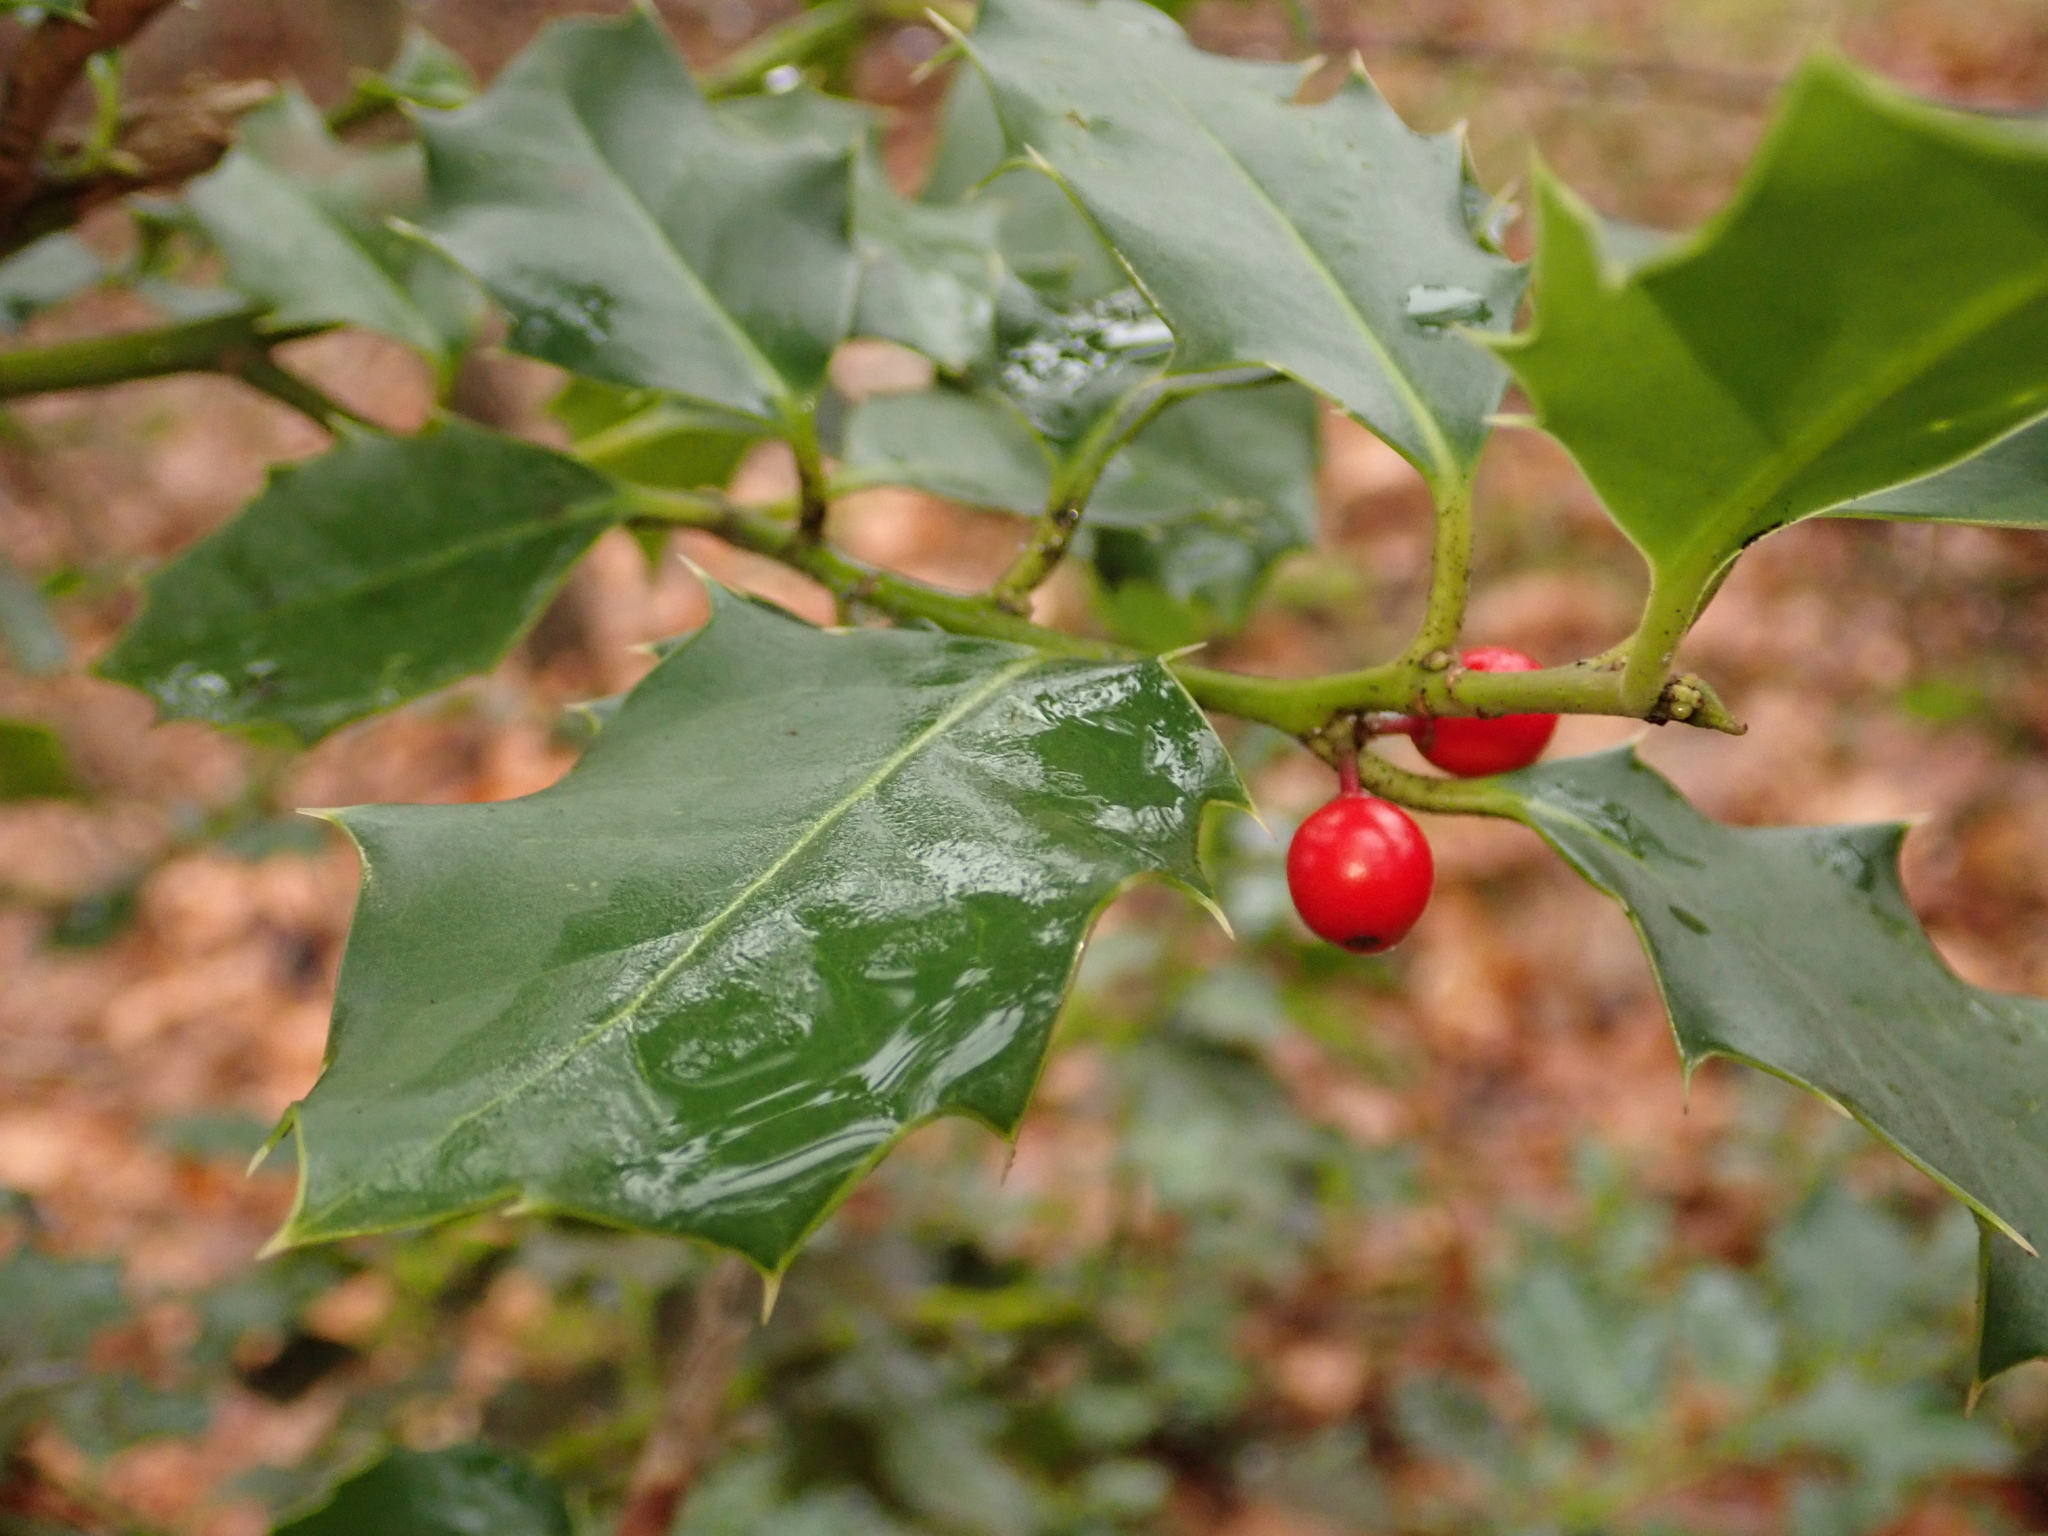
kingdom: Plantae
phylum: Tracheophyta
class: Magnoliopsida
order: Aquifoliales
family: Aquifoliaceae
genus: Ilex
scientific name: Ilex aquifolium
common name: English holly
